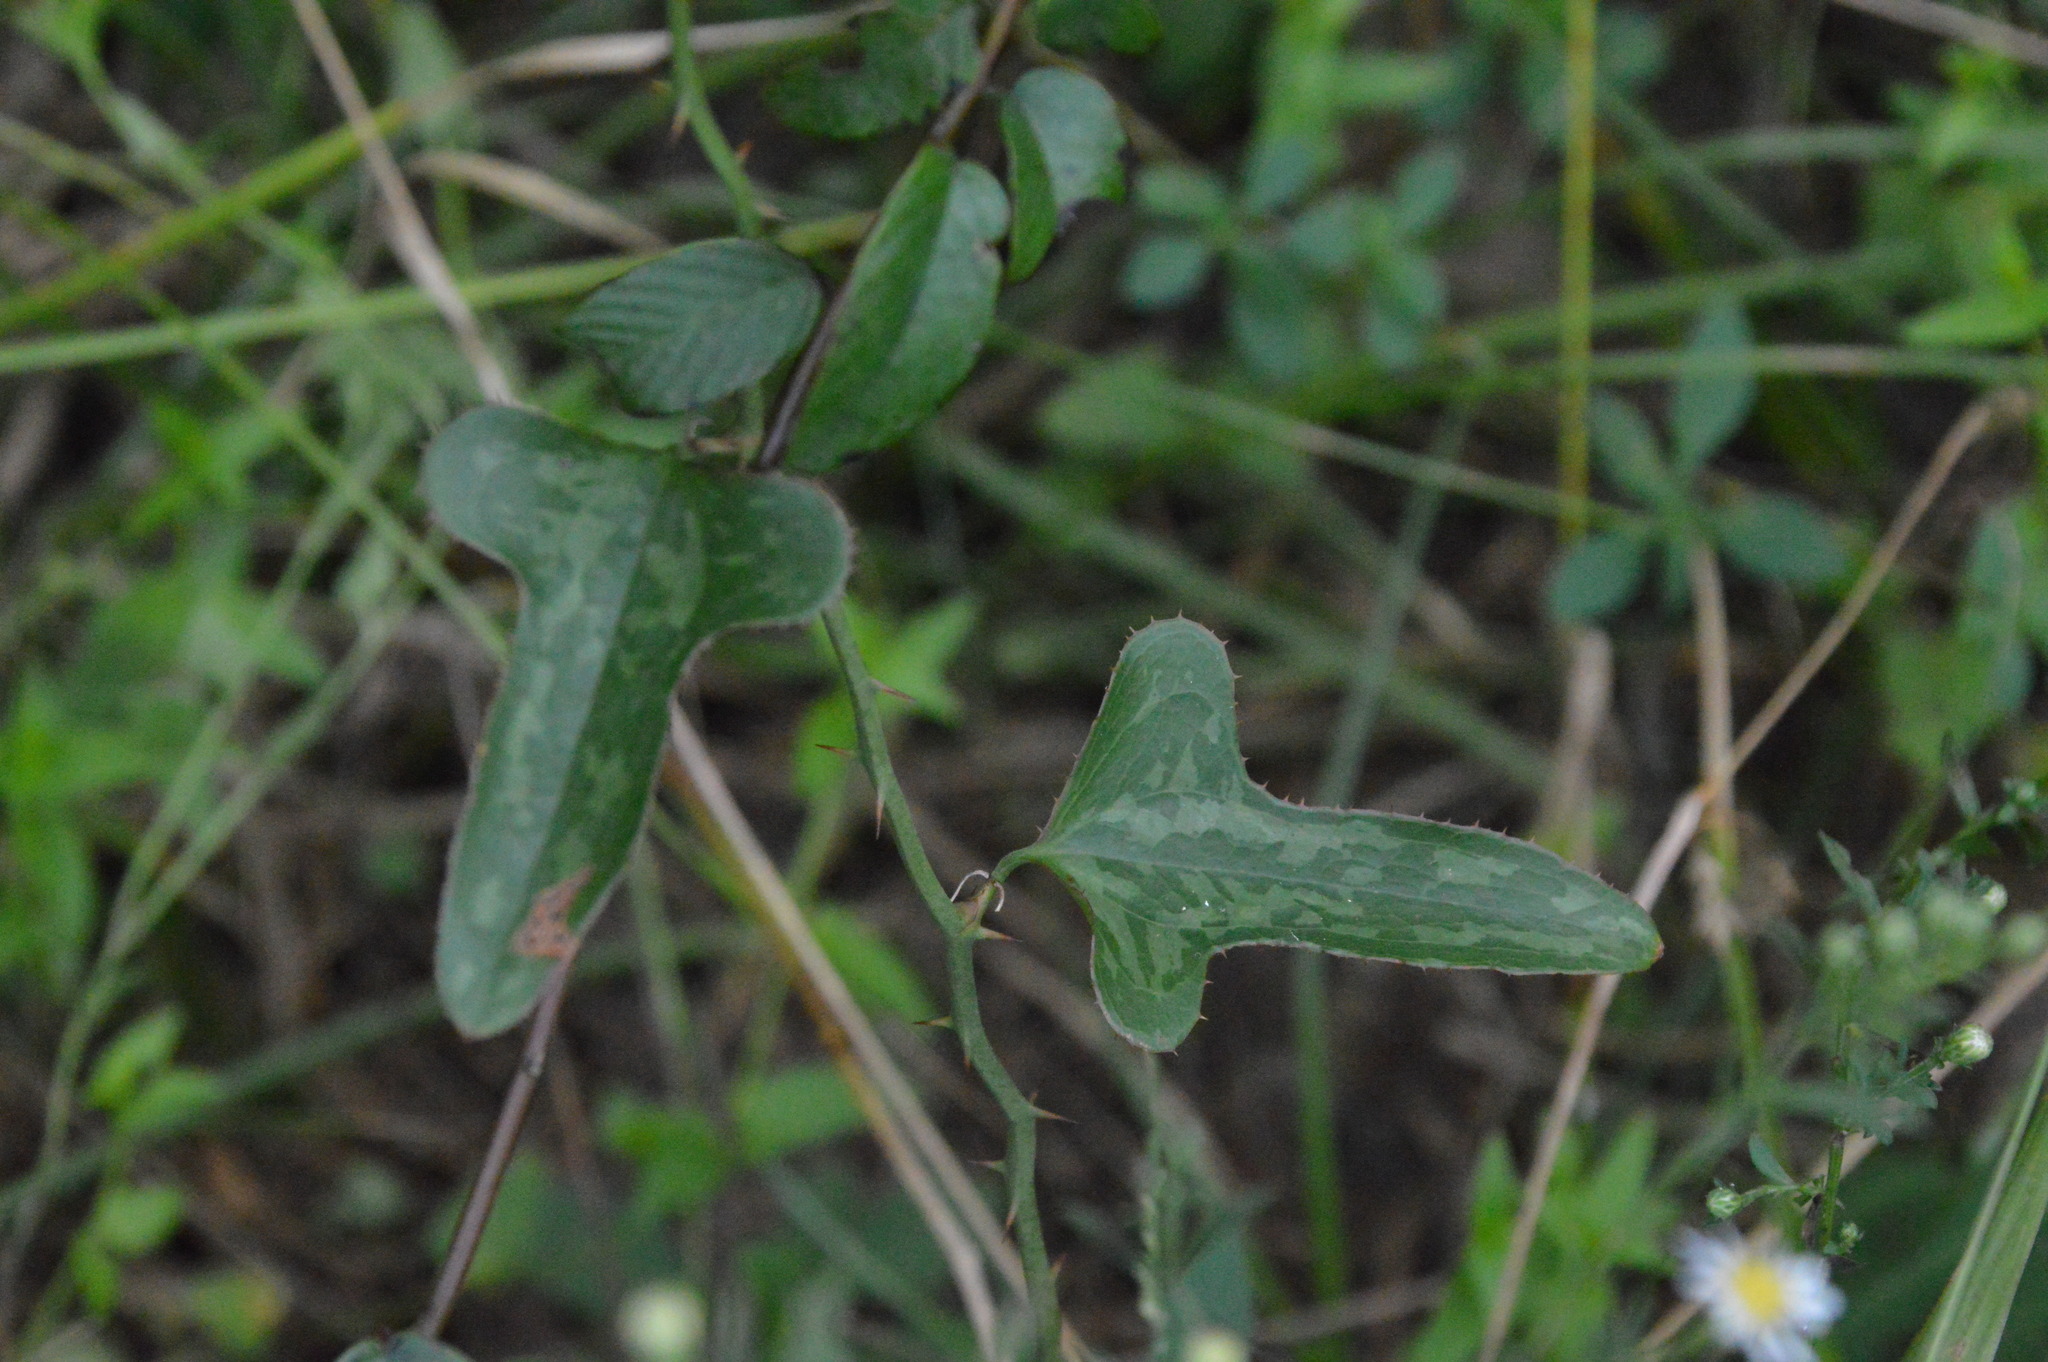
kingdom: Plantae
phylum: Tracheophyta
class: Liliopsida
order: Liliales
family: Smilacaceae
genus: Smilax
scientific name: Smilax bona-nox
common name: Catbrier
